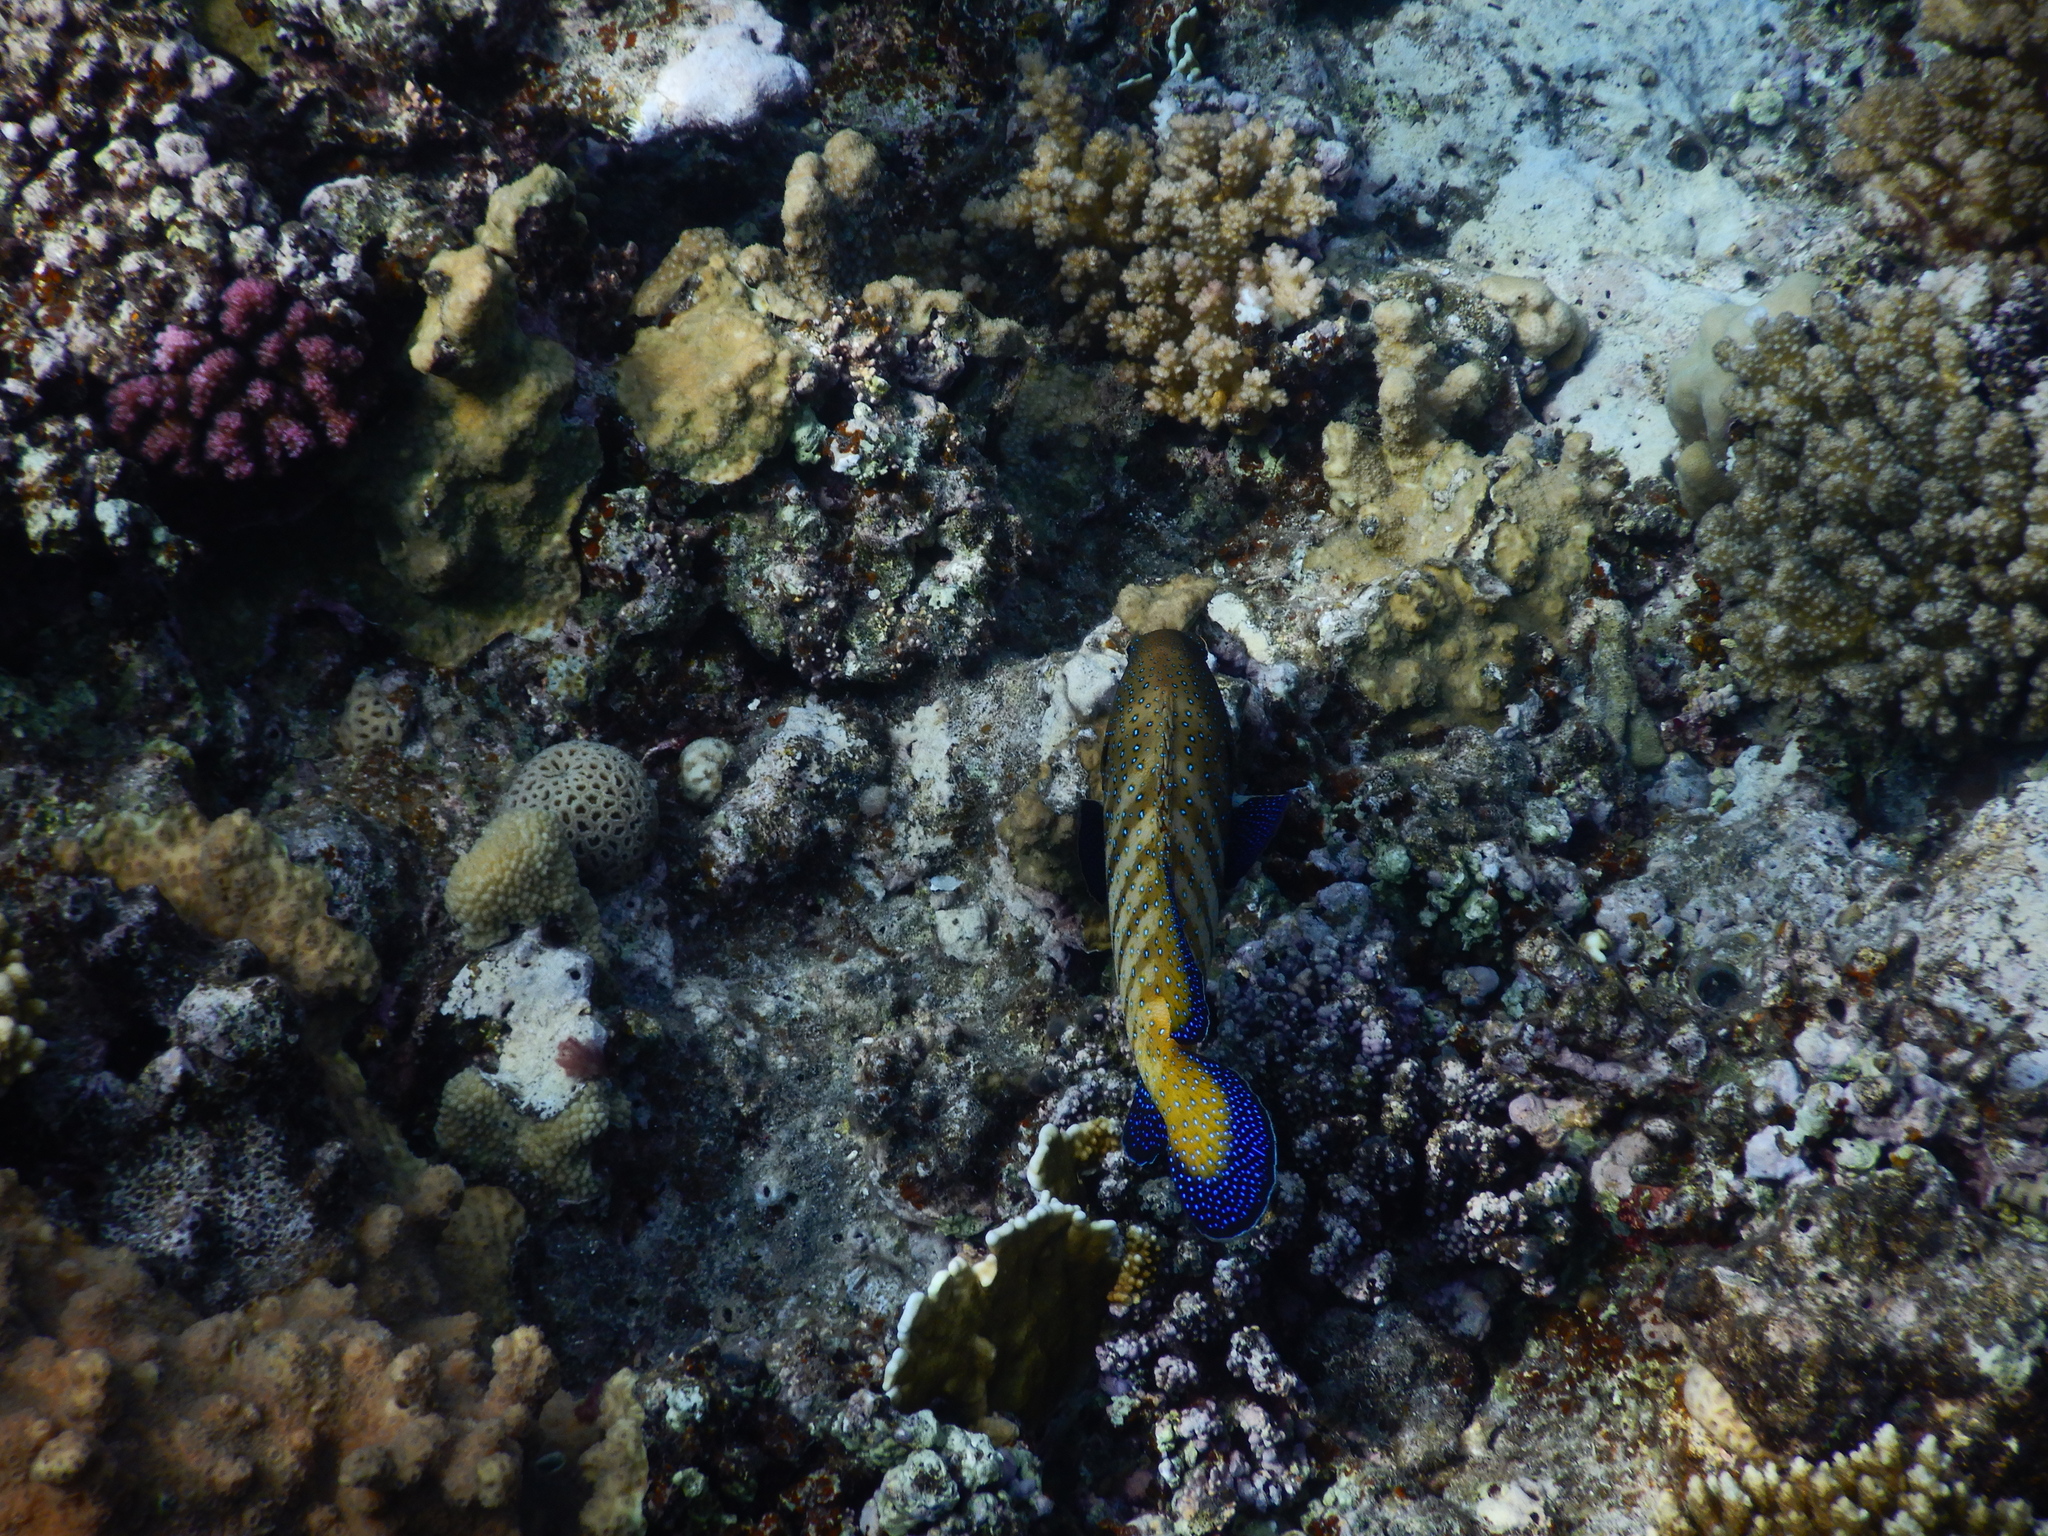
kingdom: Animalia
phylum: Chordata
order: Perciformes
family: Serranidae
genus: Cephalopholis
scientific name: Cephalopholis argus
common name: Peacock grouper
